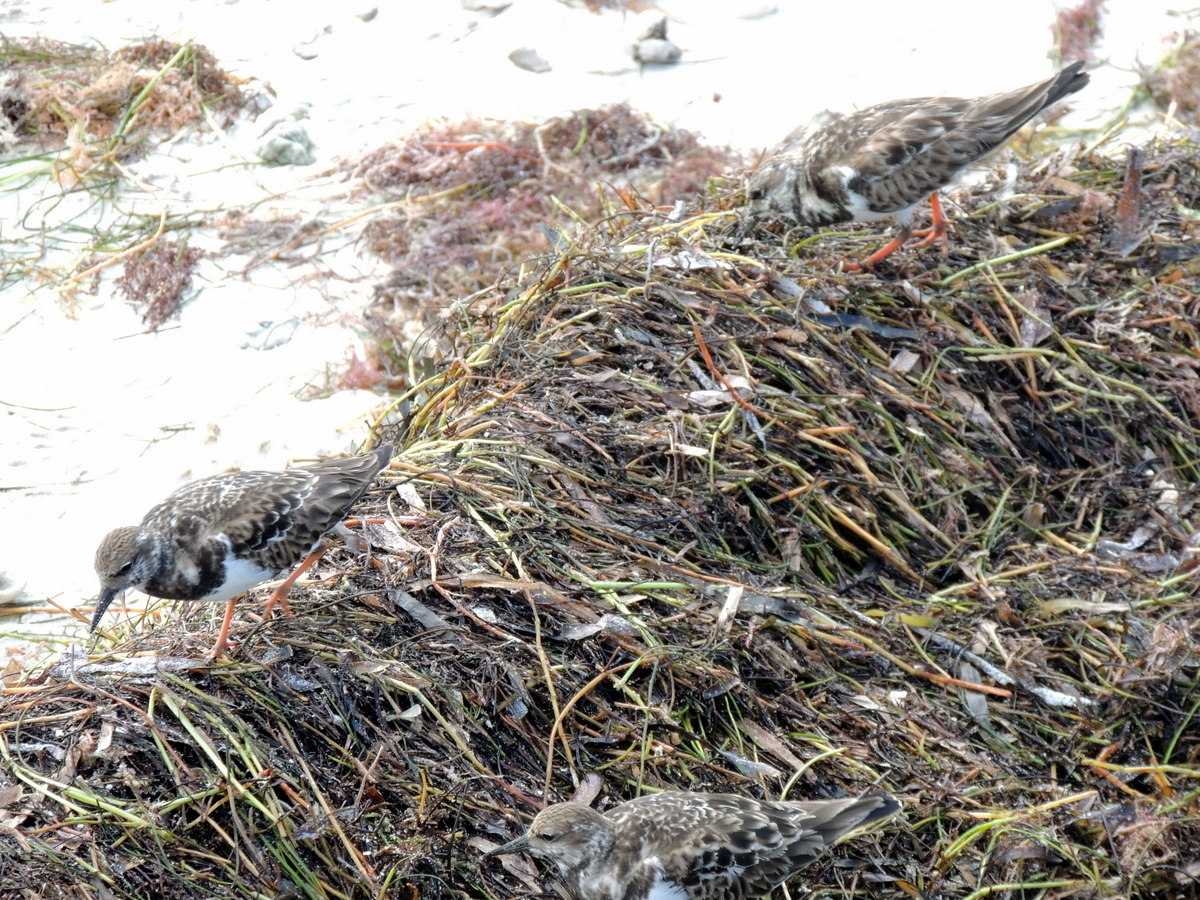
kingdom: Animalia
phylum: Chordata
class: Aves
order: Charadriiformes
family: Scolopacidae
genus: Arenaria
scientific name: Arenaria interpres
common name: Ruddy turnstone
